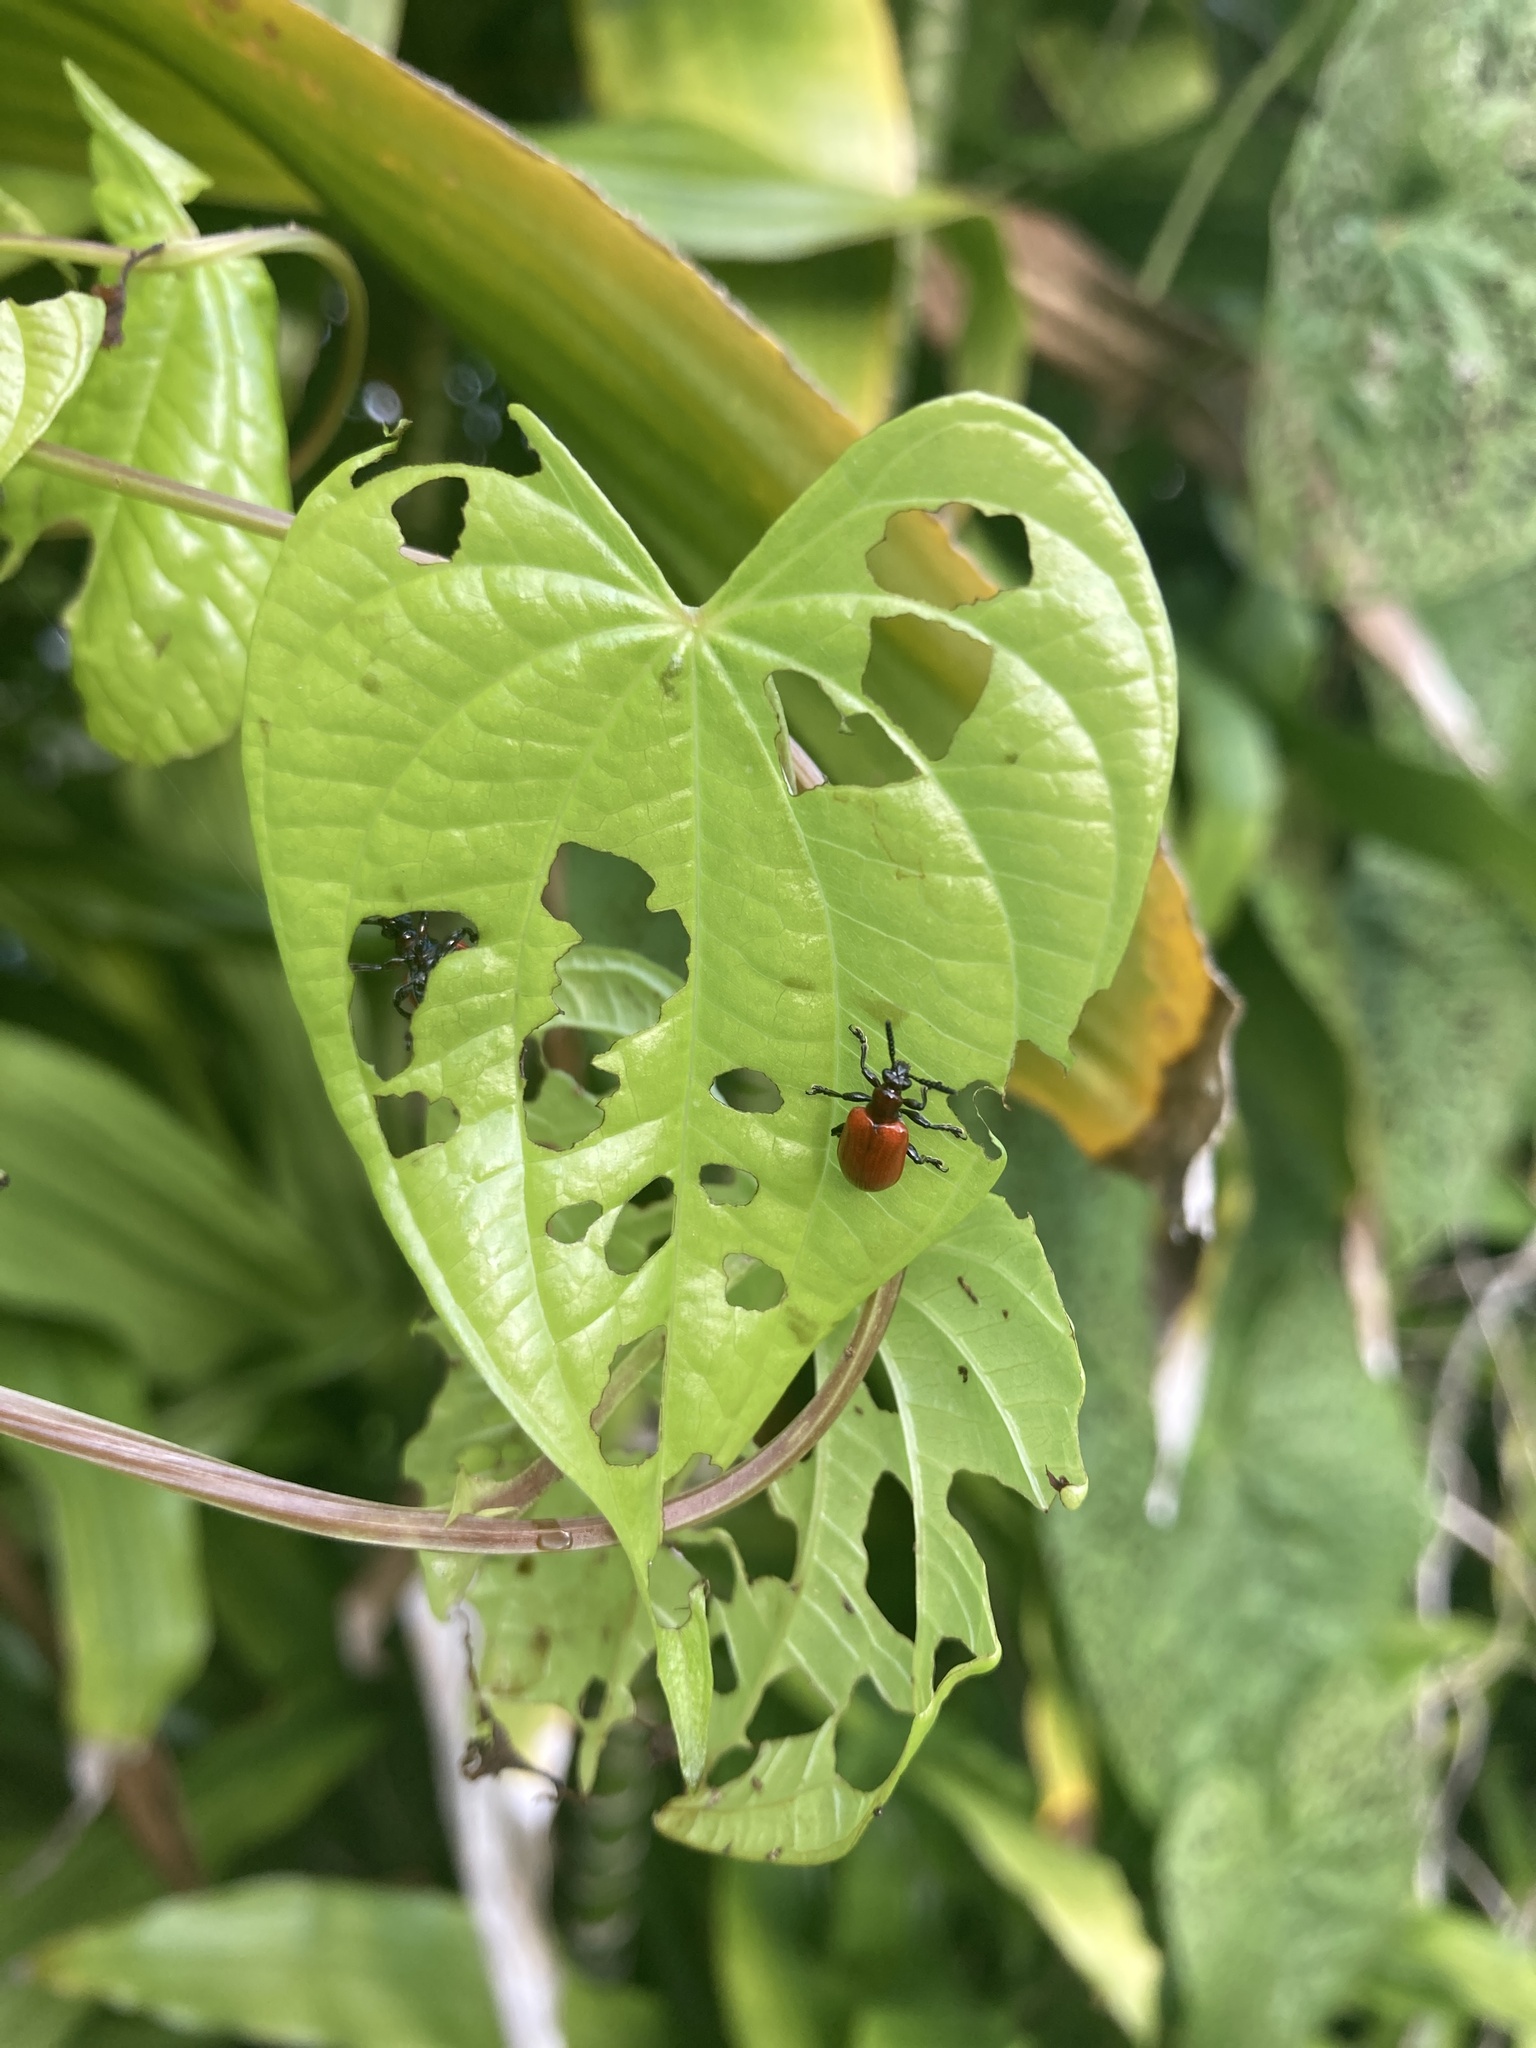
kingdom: Animalia
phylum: Arthropoda
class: Insecta
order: Coleoptera
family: Chrysomelidae
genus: Lilioceris
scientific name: Lilioceris cheni
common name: Leaf beetle
